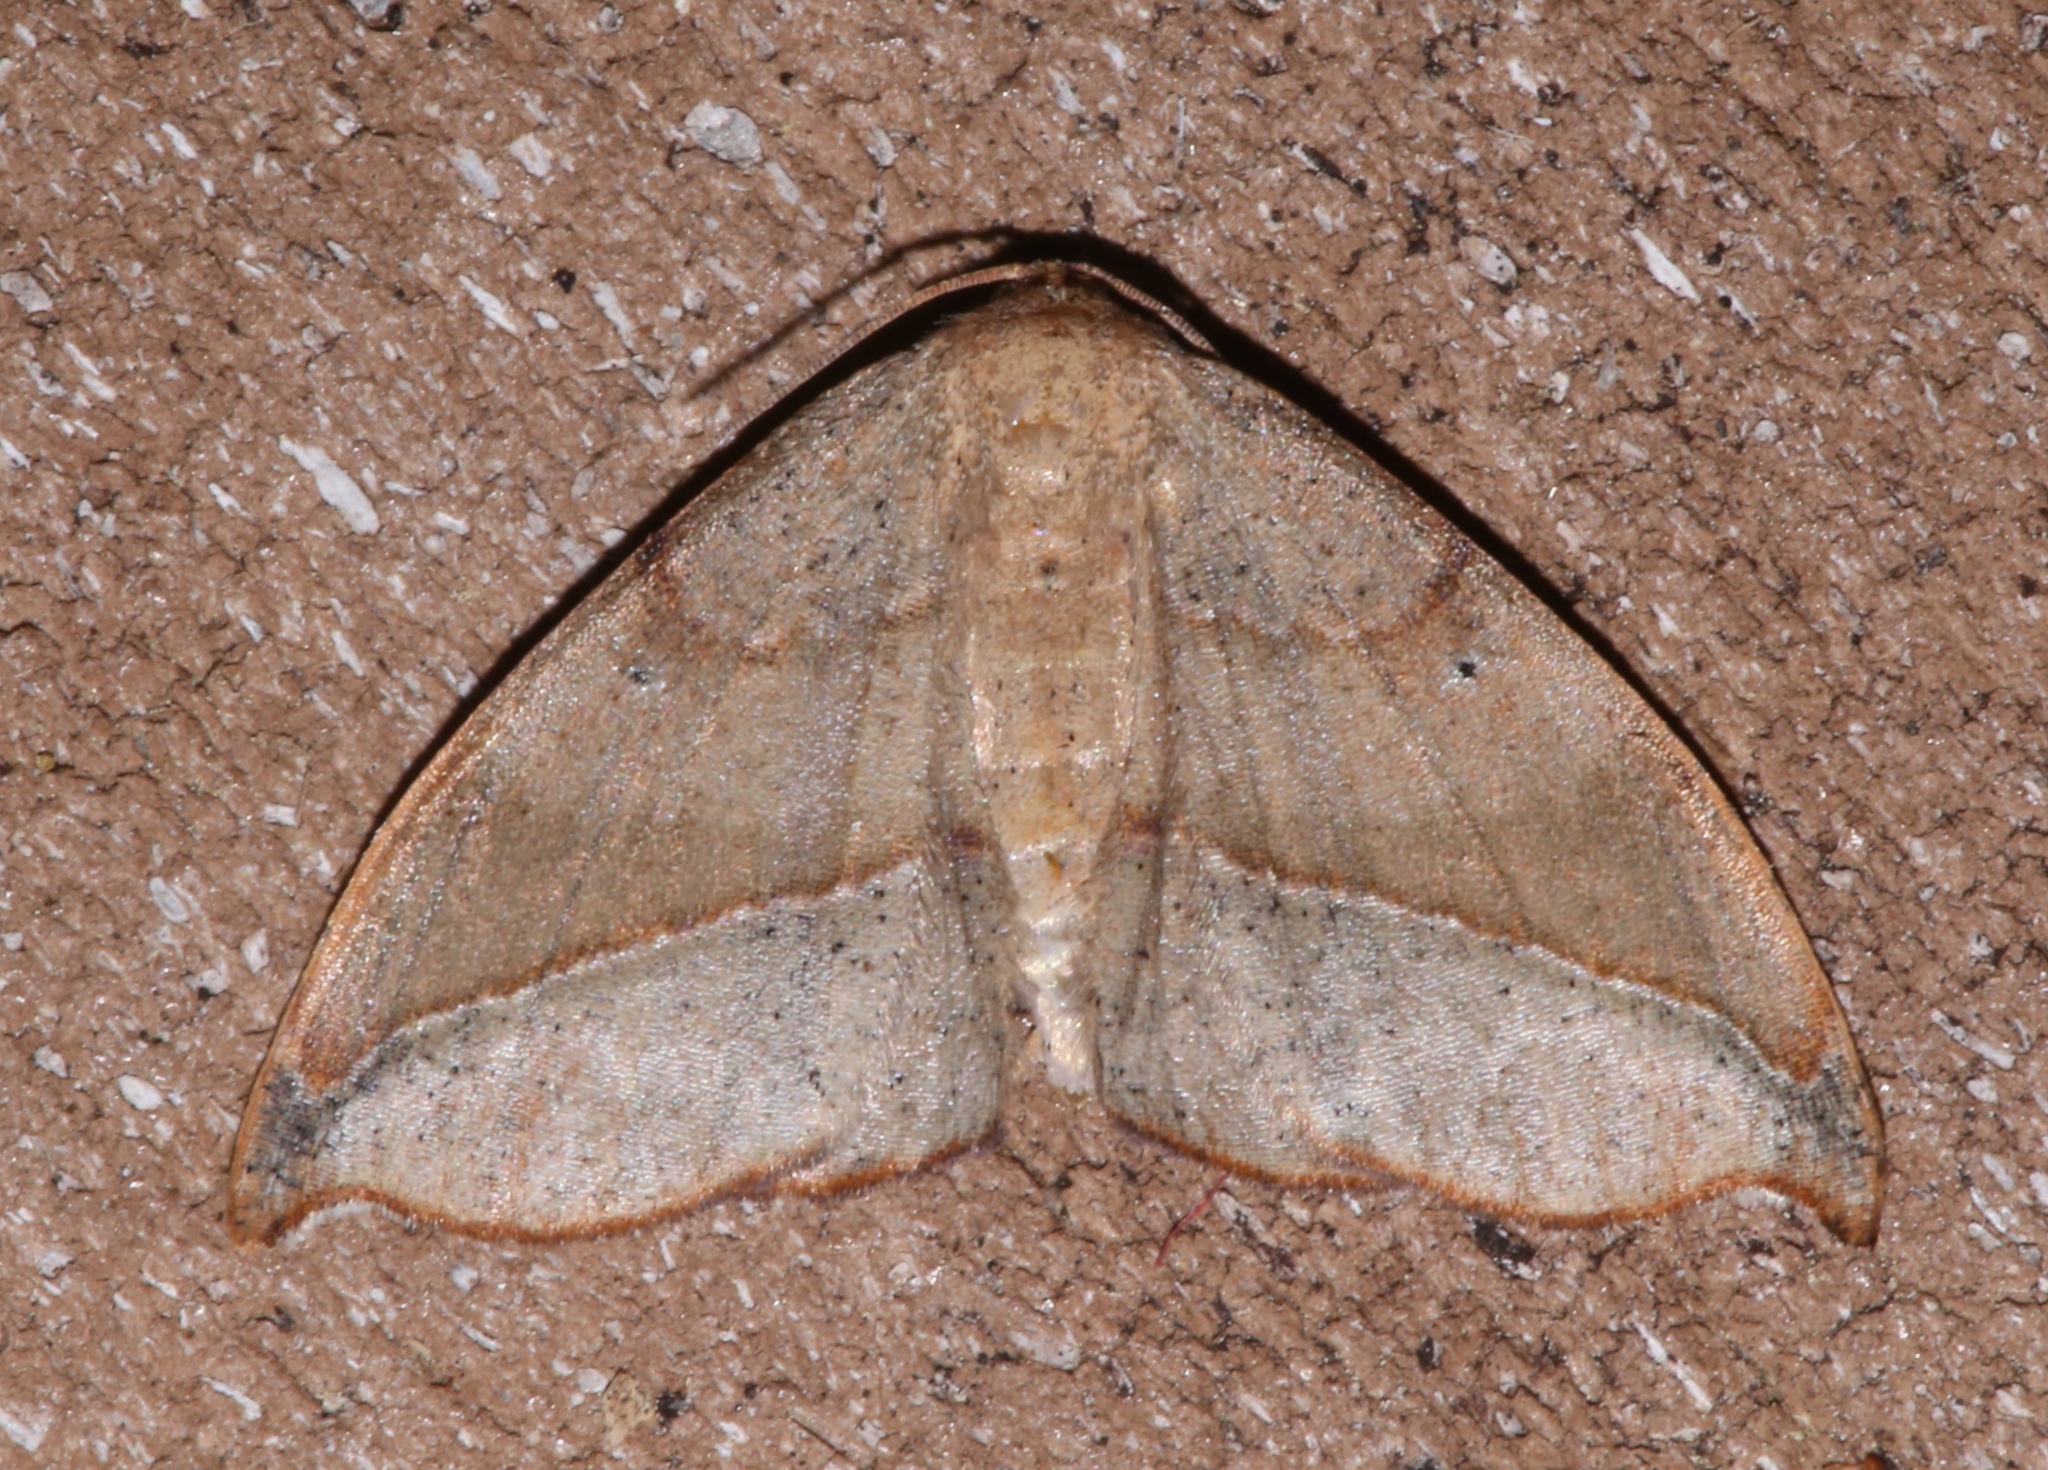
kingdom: Animalia
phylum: Arthropoda
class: Insecta
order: Lepidoptera
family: Geometridae
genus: Patalene
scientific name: Patalene olyzonaria
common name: Juniper geometer moth
